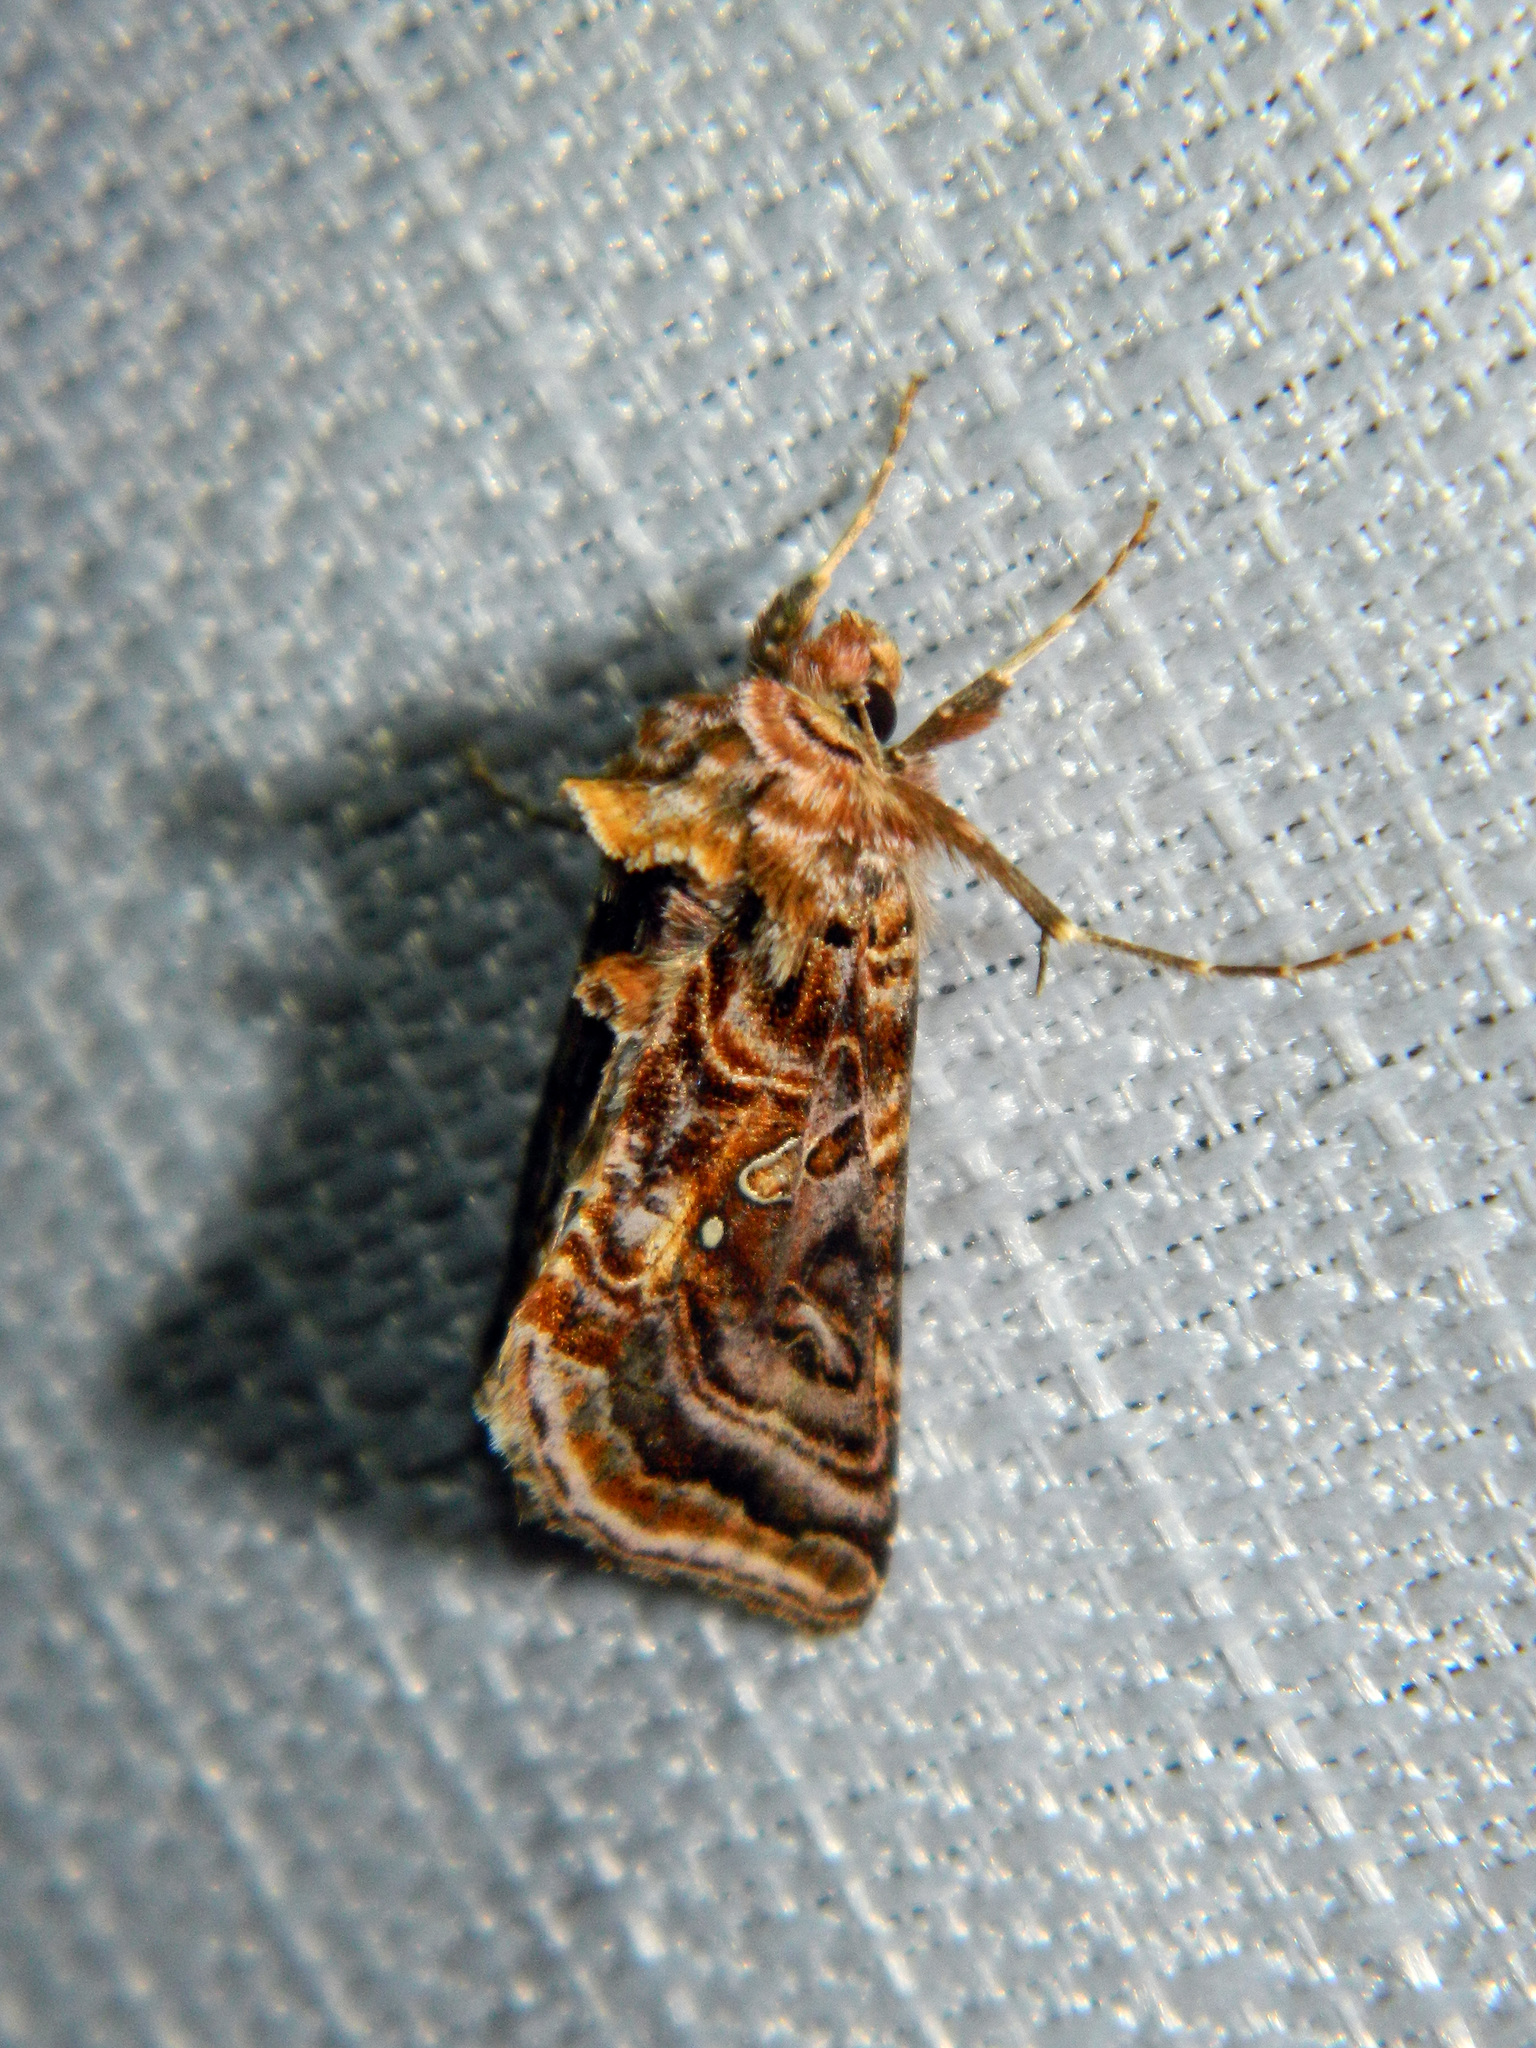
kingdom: Animalia
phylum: Arthropoda
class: Insecta
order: Lepidoptera
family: Noctuidae
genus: Autographa
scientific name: Autographa mappa
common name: Wavy chestnut y moth
